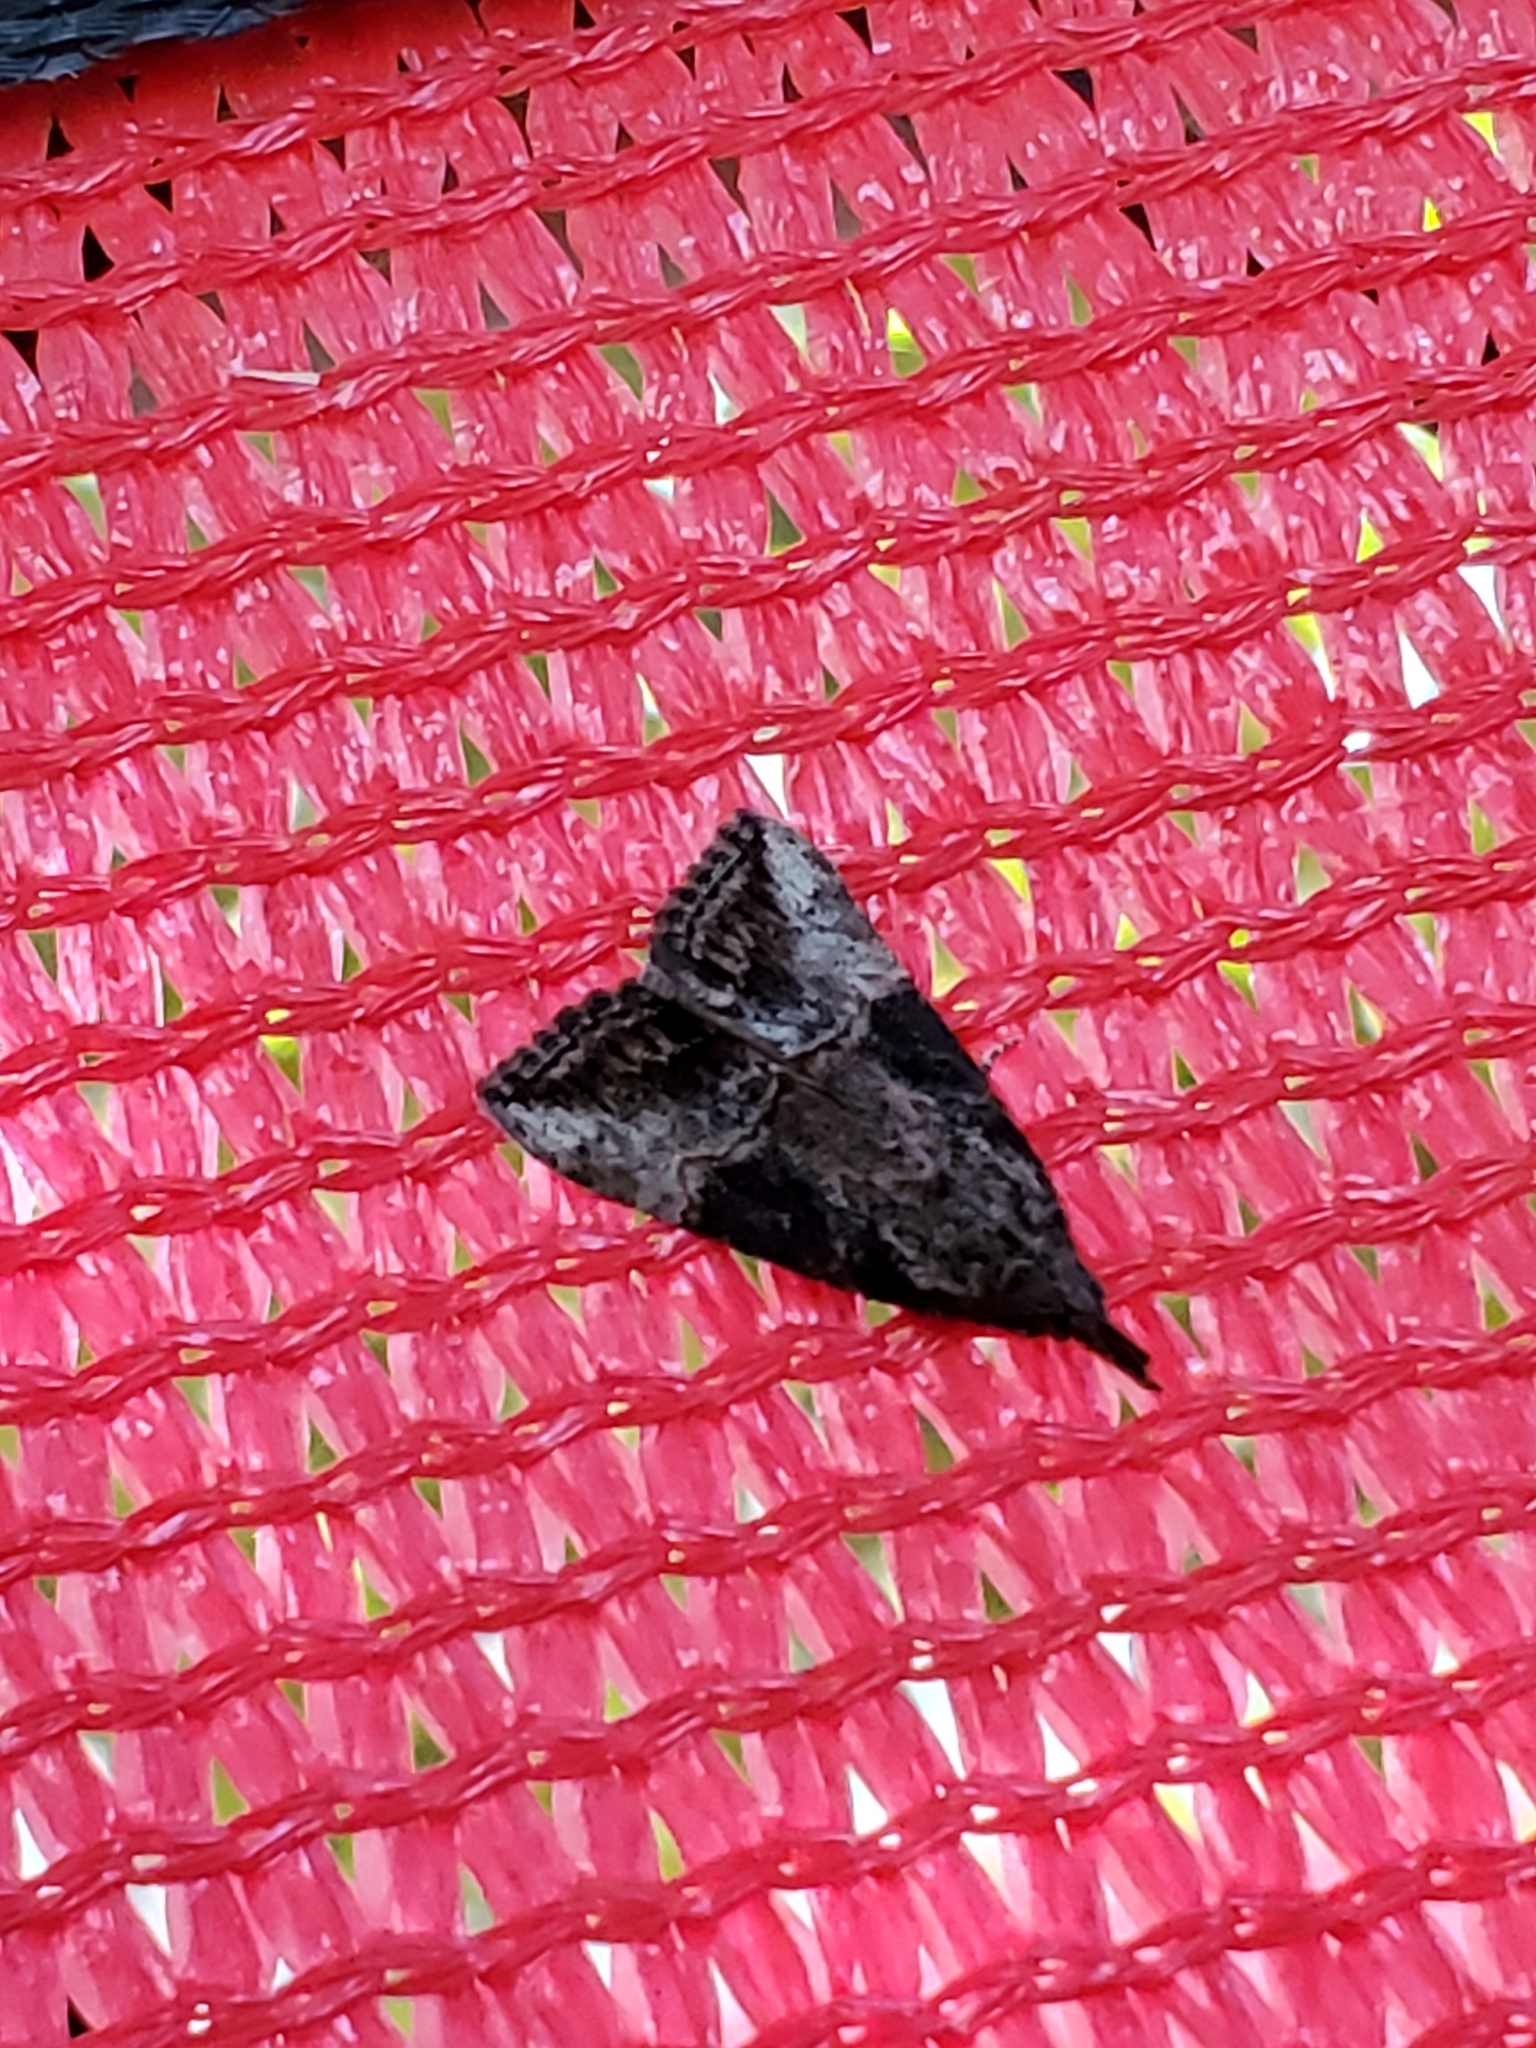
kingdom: Animalia
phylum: Arthropoda
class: Insecta
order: Lepidoptera
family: Erebidae
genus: Hypena
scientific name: Hypena scabra
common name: Green cloverworm
